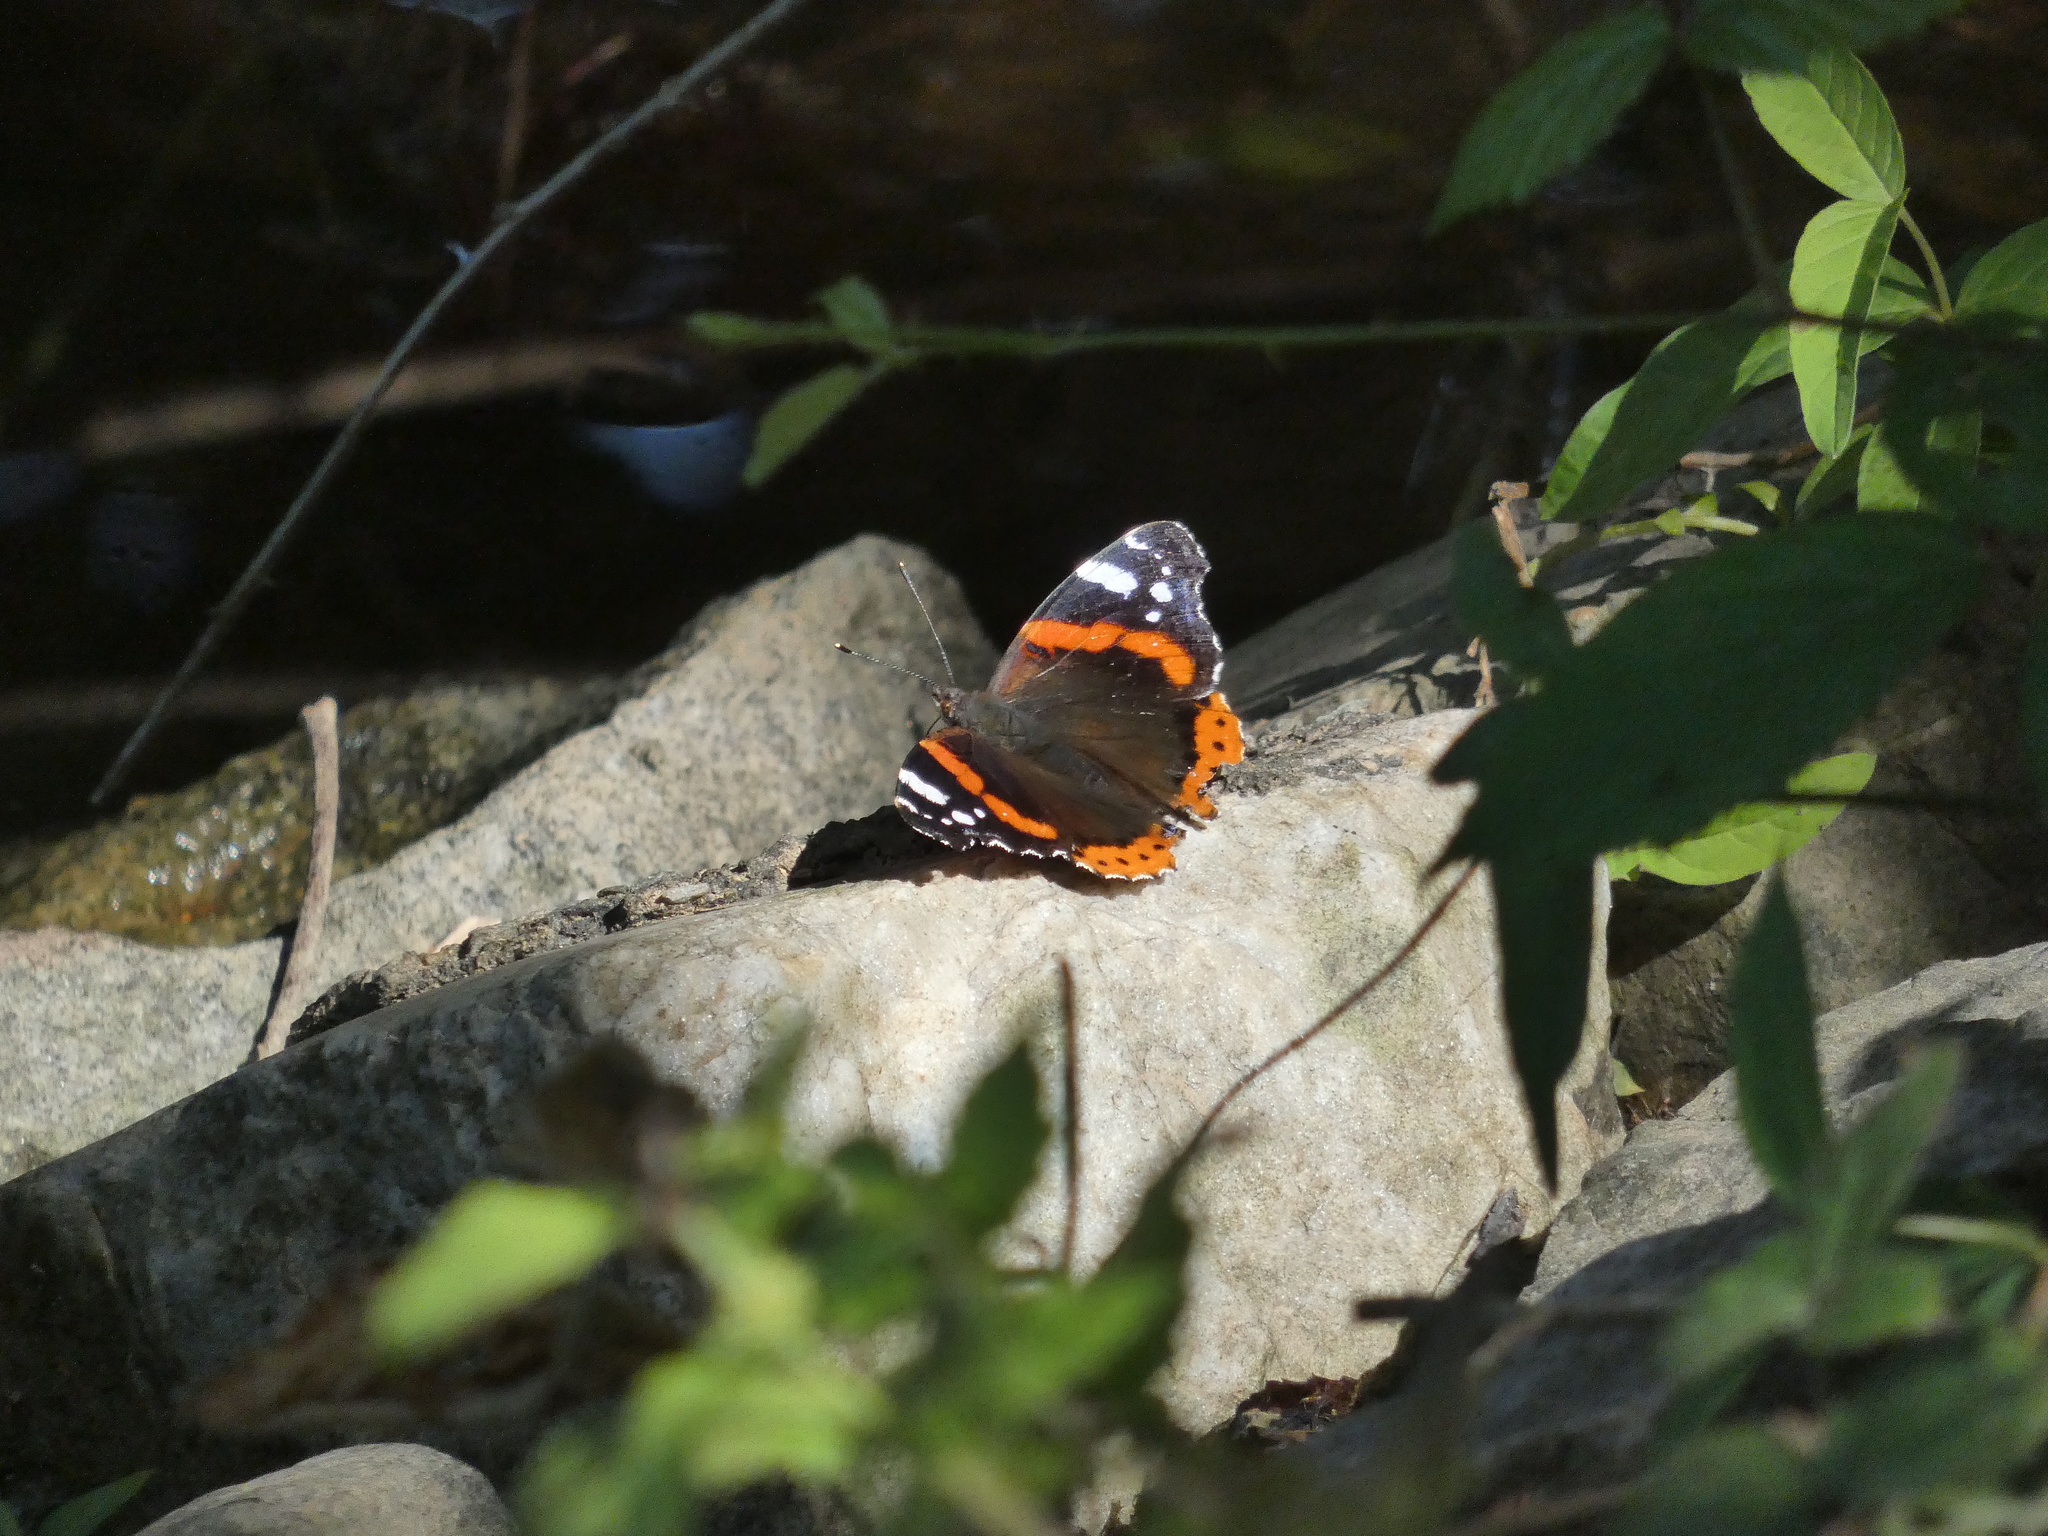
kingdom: Animalia
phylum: Arthropoda
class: Insecta
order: Lepidoptera
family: Nymphalidae
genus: Vanessa
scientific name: Vanessa atalanta
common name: Red admiral
